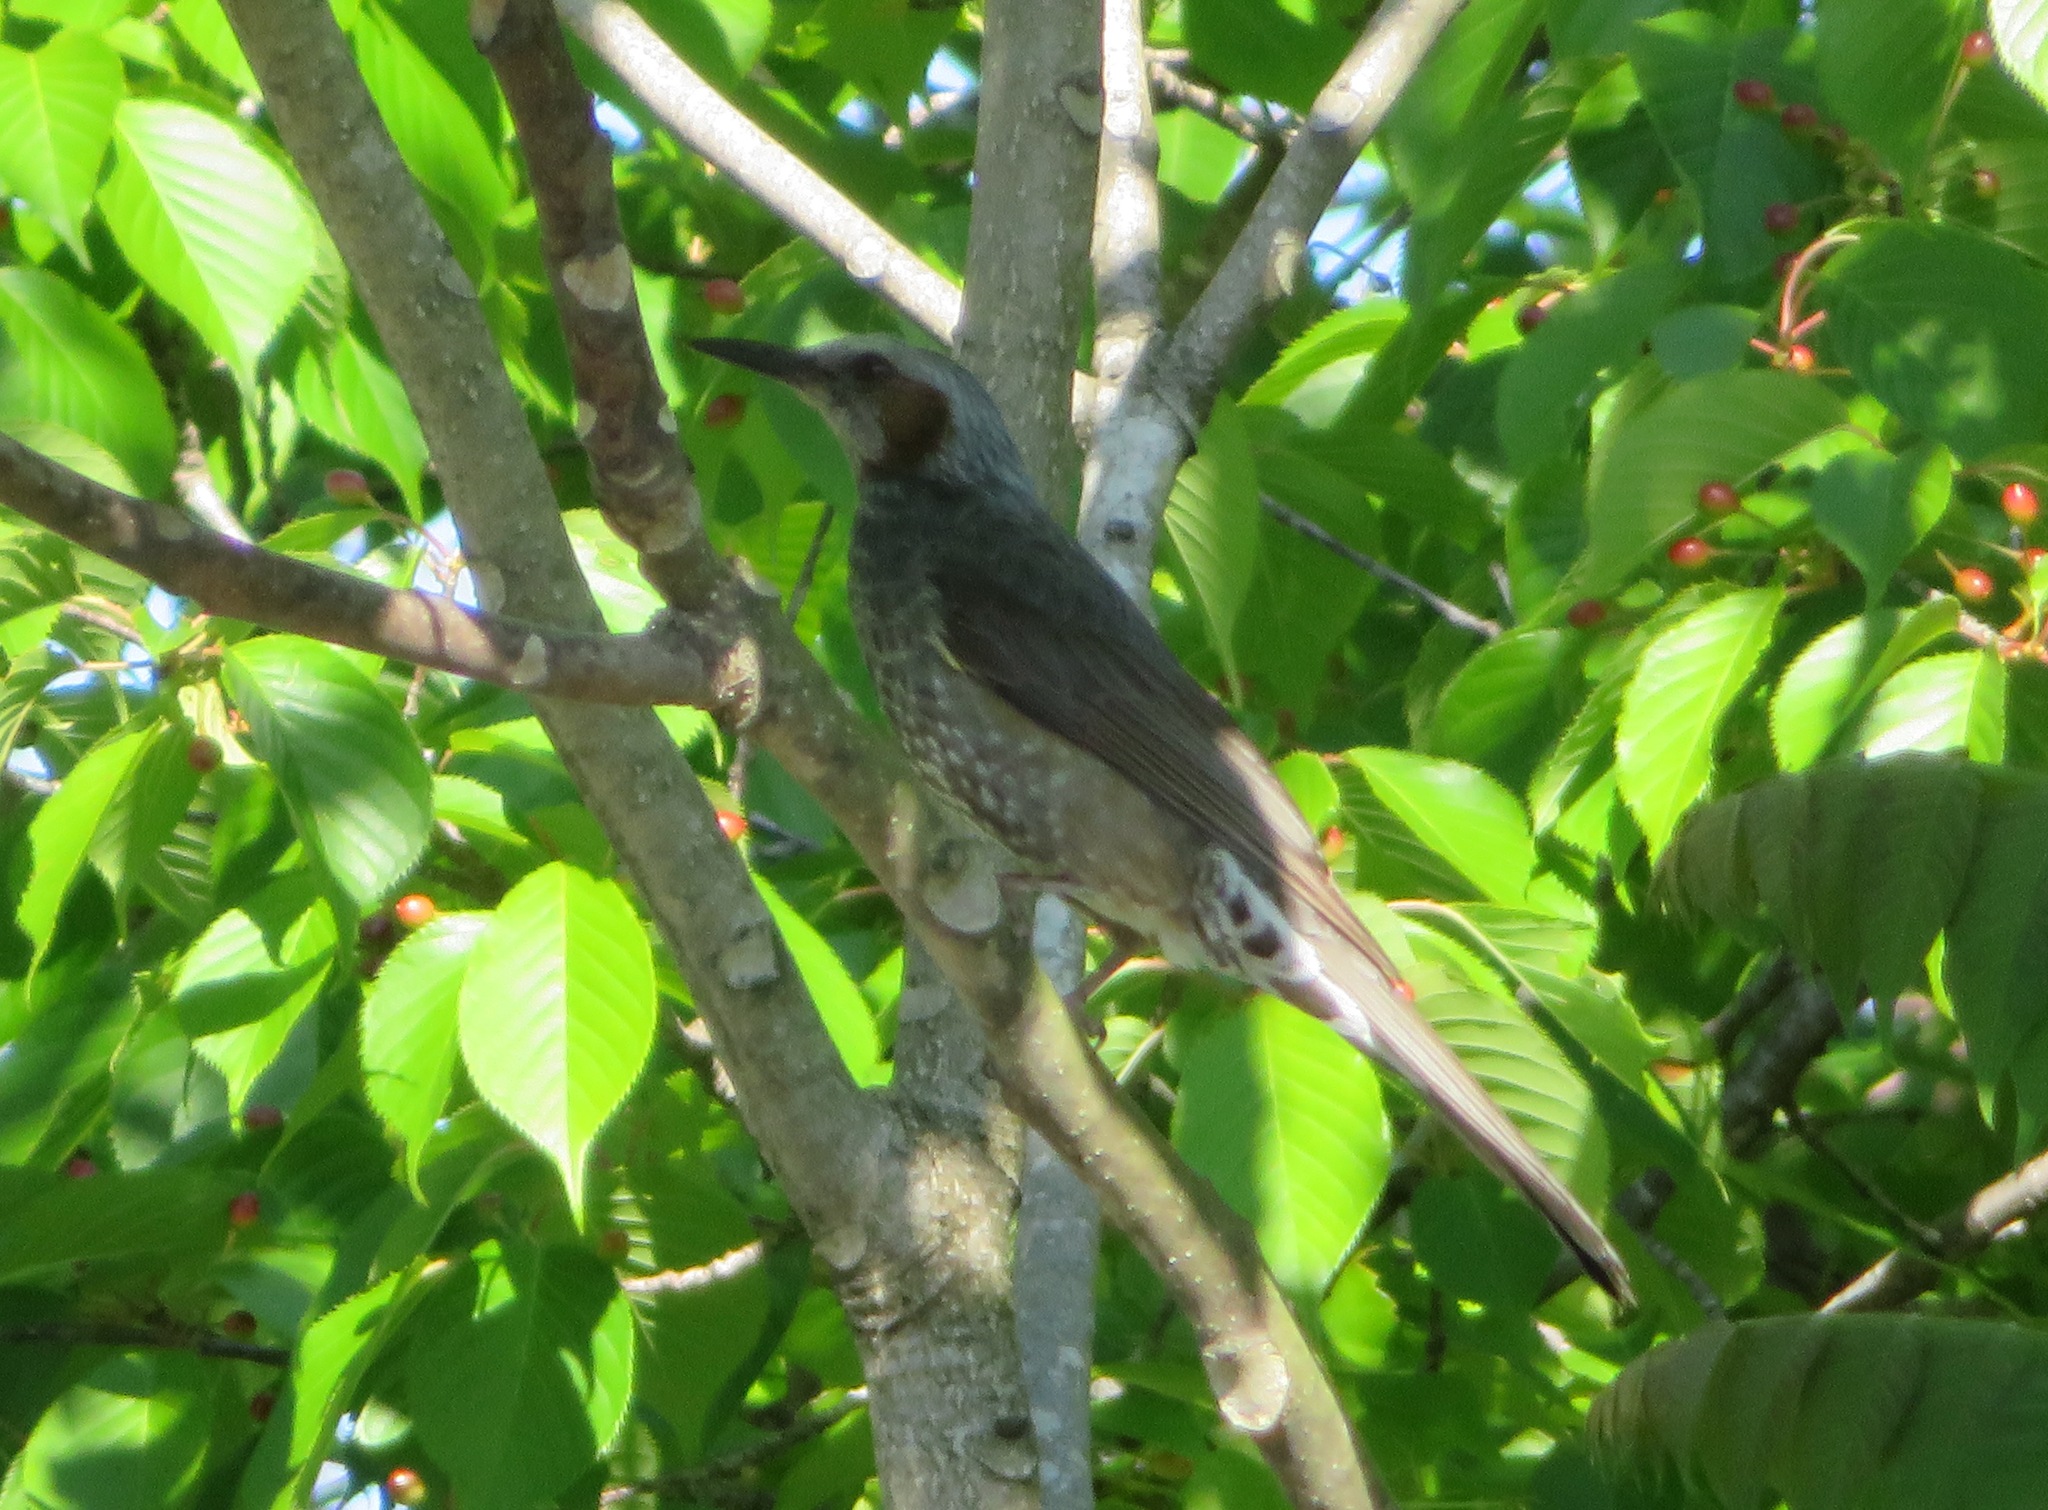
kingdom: Animalia
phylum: Chordata
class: Aves
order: Passeriformes
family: Pycnonotidae
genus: Hypsipetes
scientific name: Hypsipetes amaurotis
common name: Brown-eared bulbul
